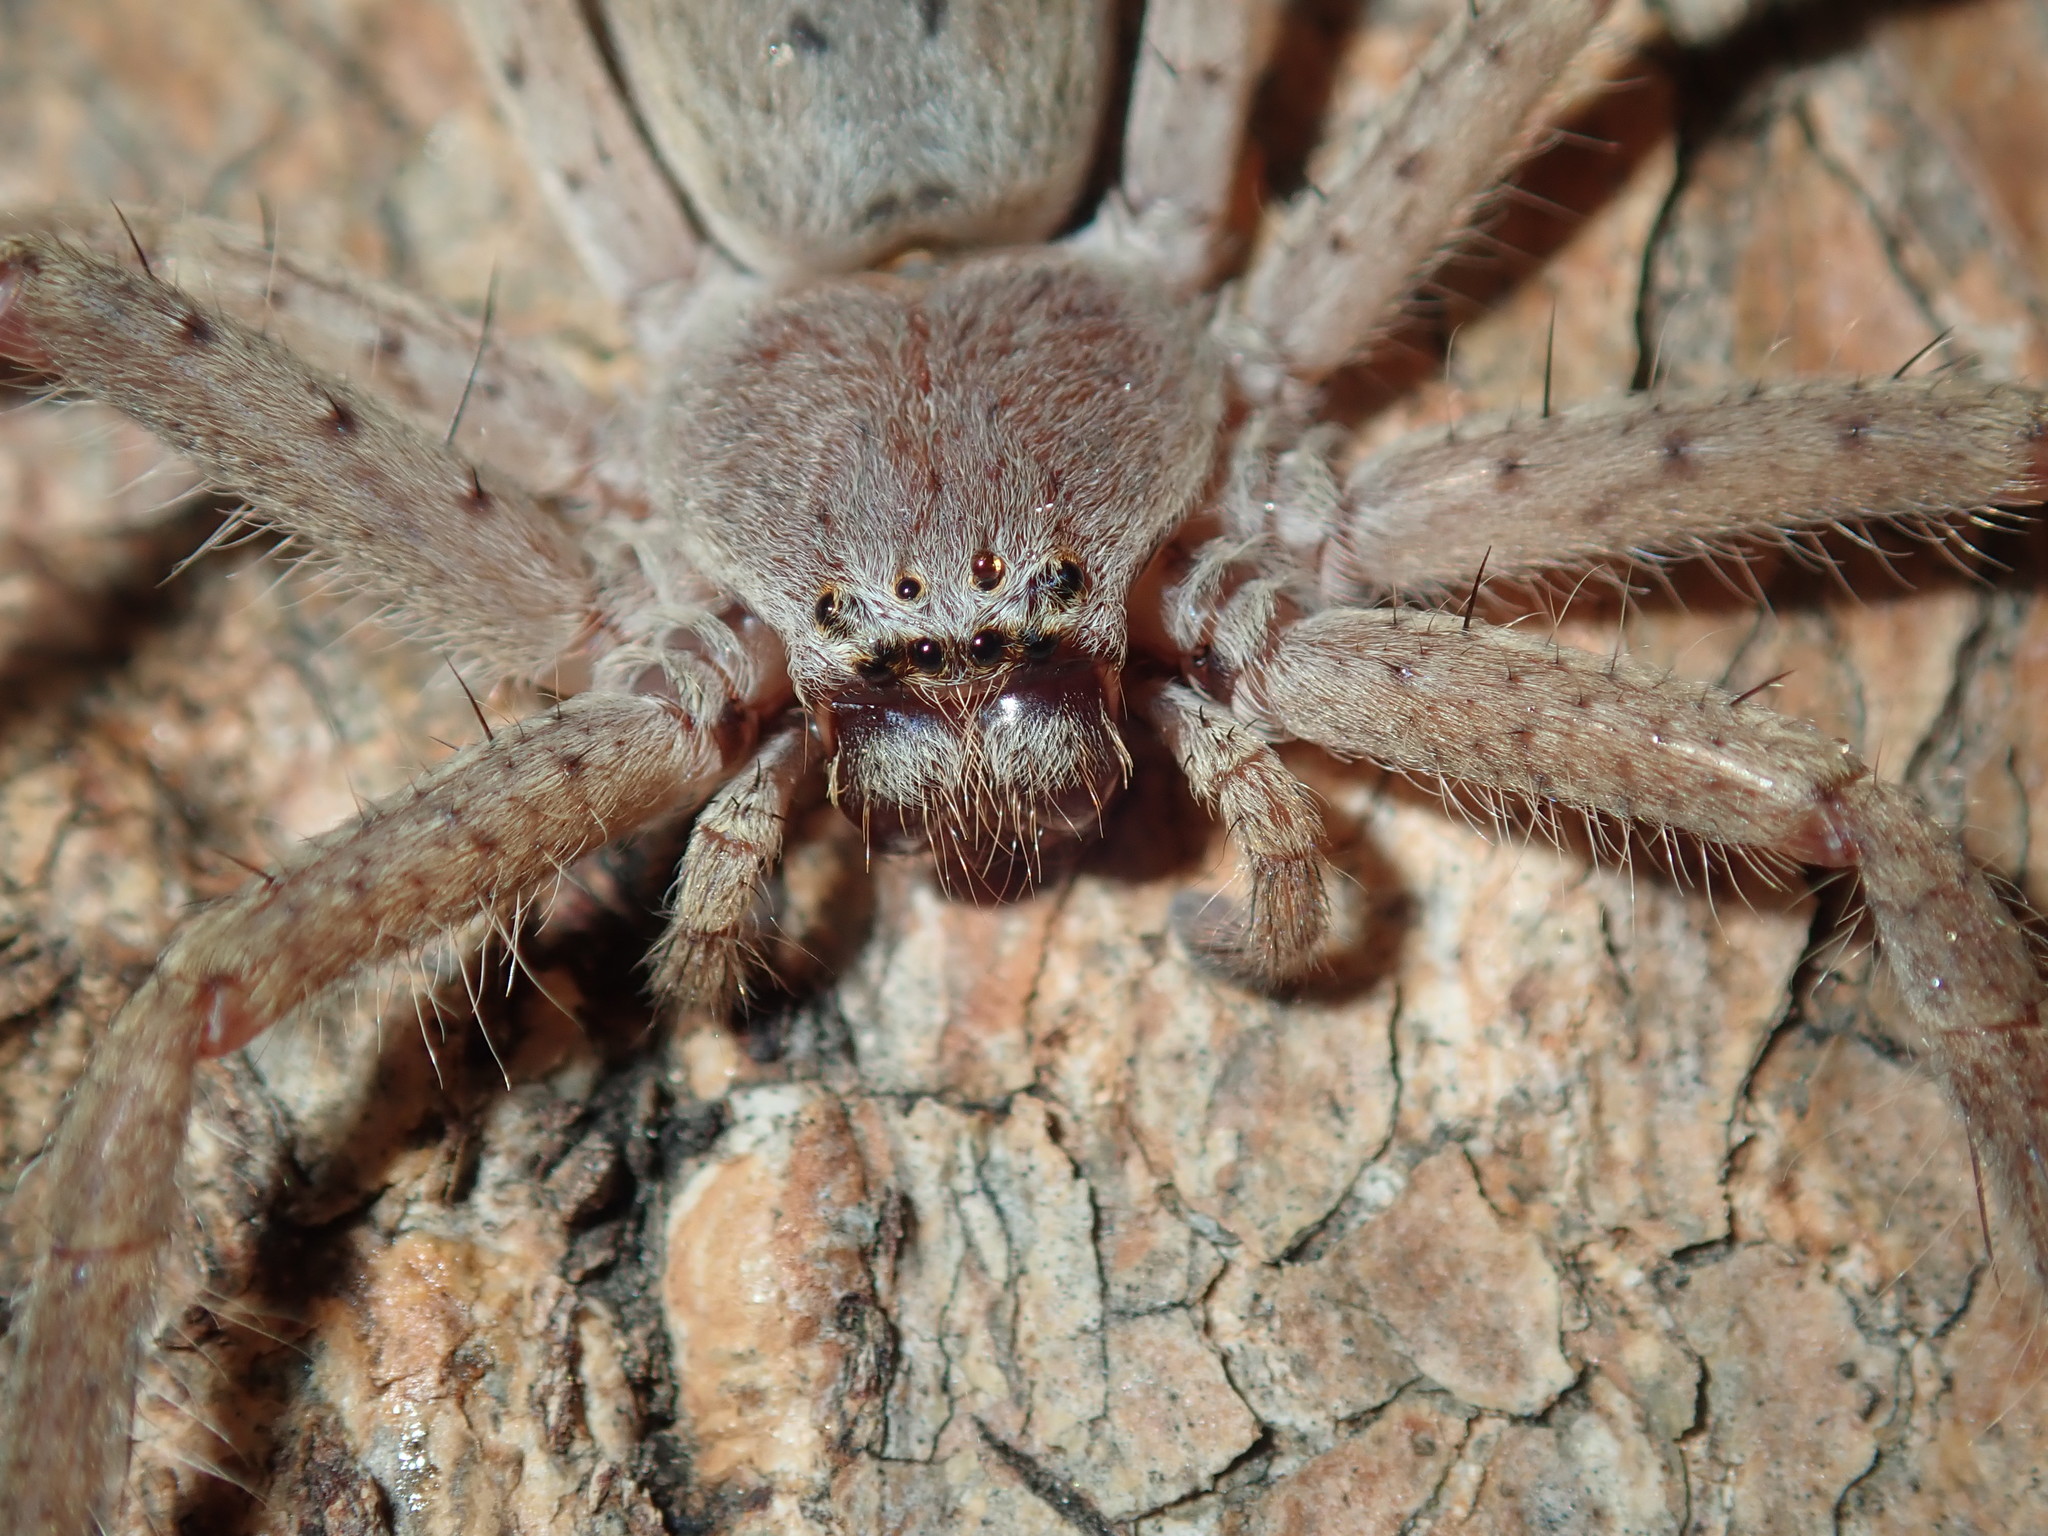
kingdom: Animalia
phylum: Arthropoda
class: Arachnida
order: Araneae
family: Sparassidae
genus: Isopeda
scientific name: Isopeda villosa
